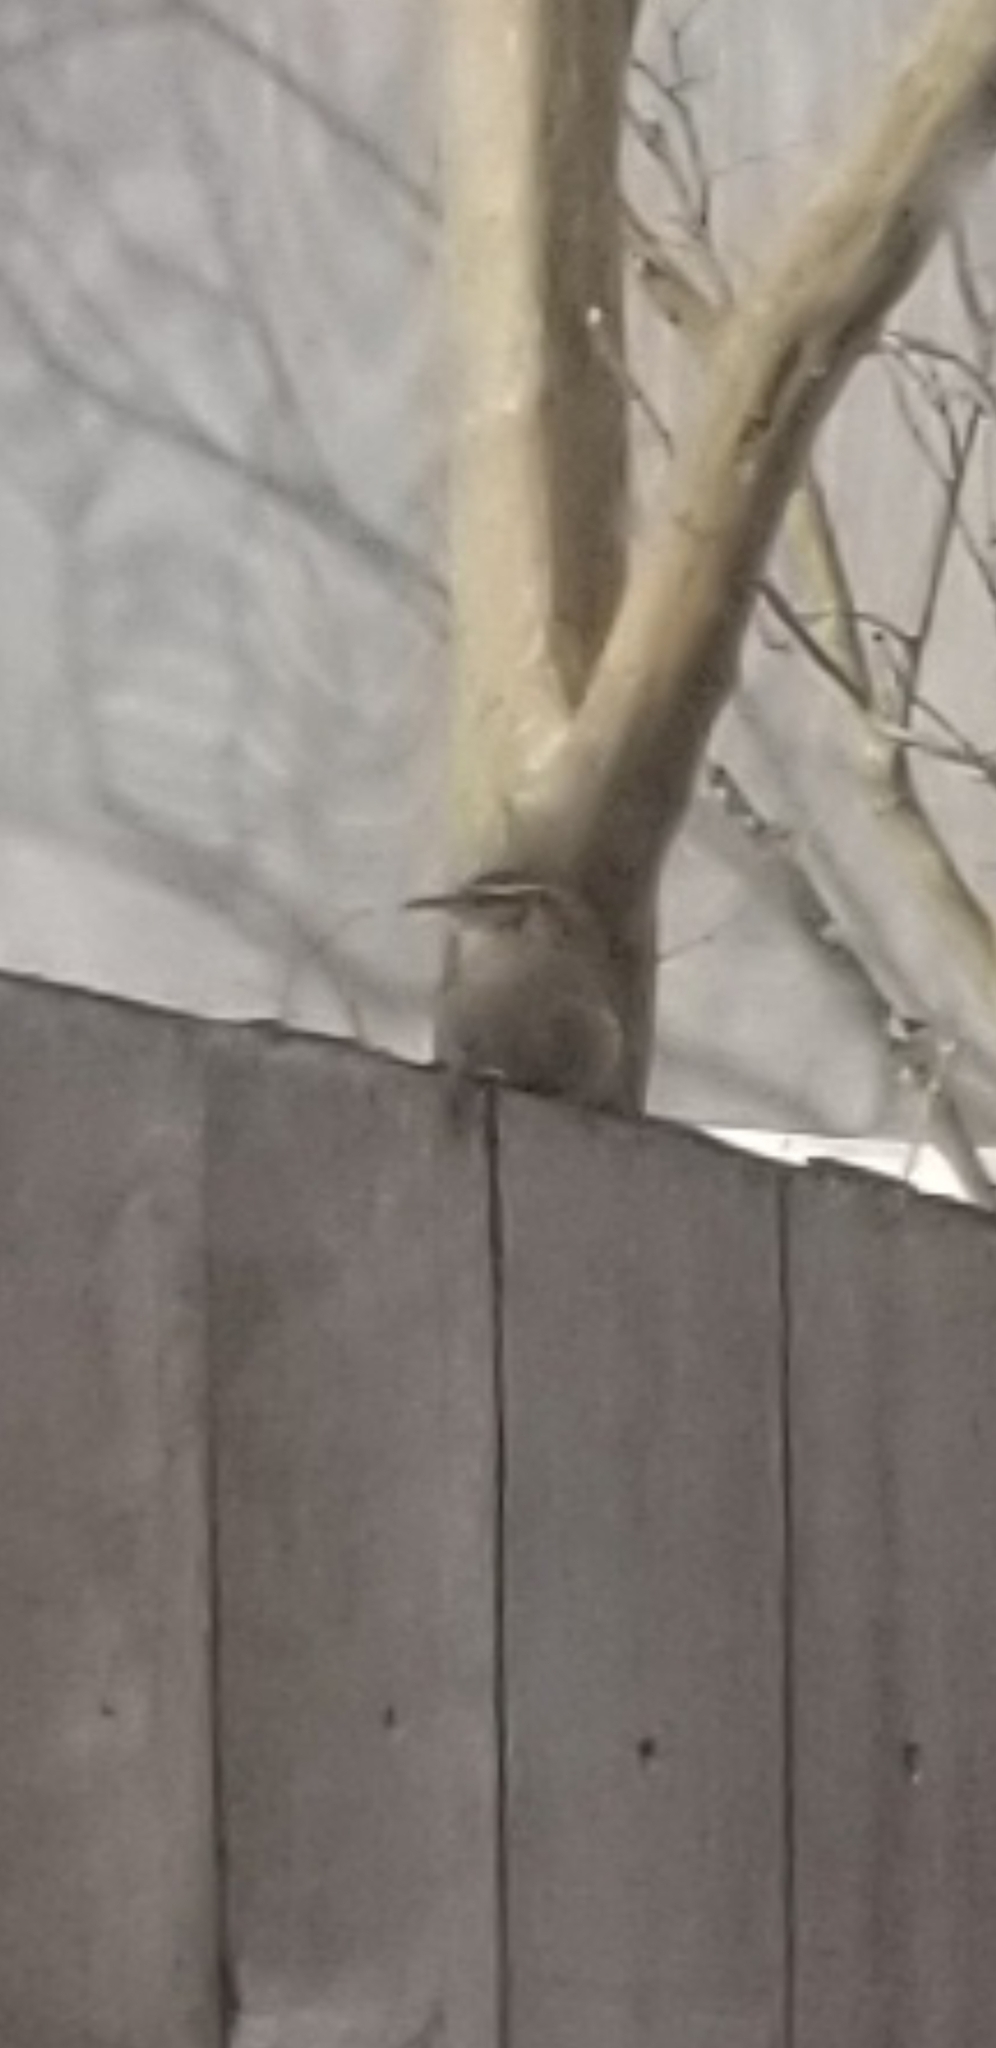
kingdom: Animalia
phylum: Chordata
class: Aves
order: Passeriformes
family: Troglodytidae
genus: Thryothorus
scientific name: Thryothorus ludovicianus
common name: Carolina wren
